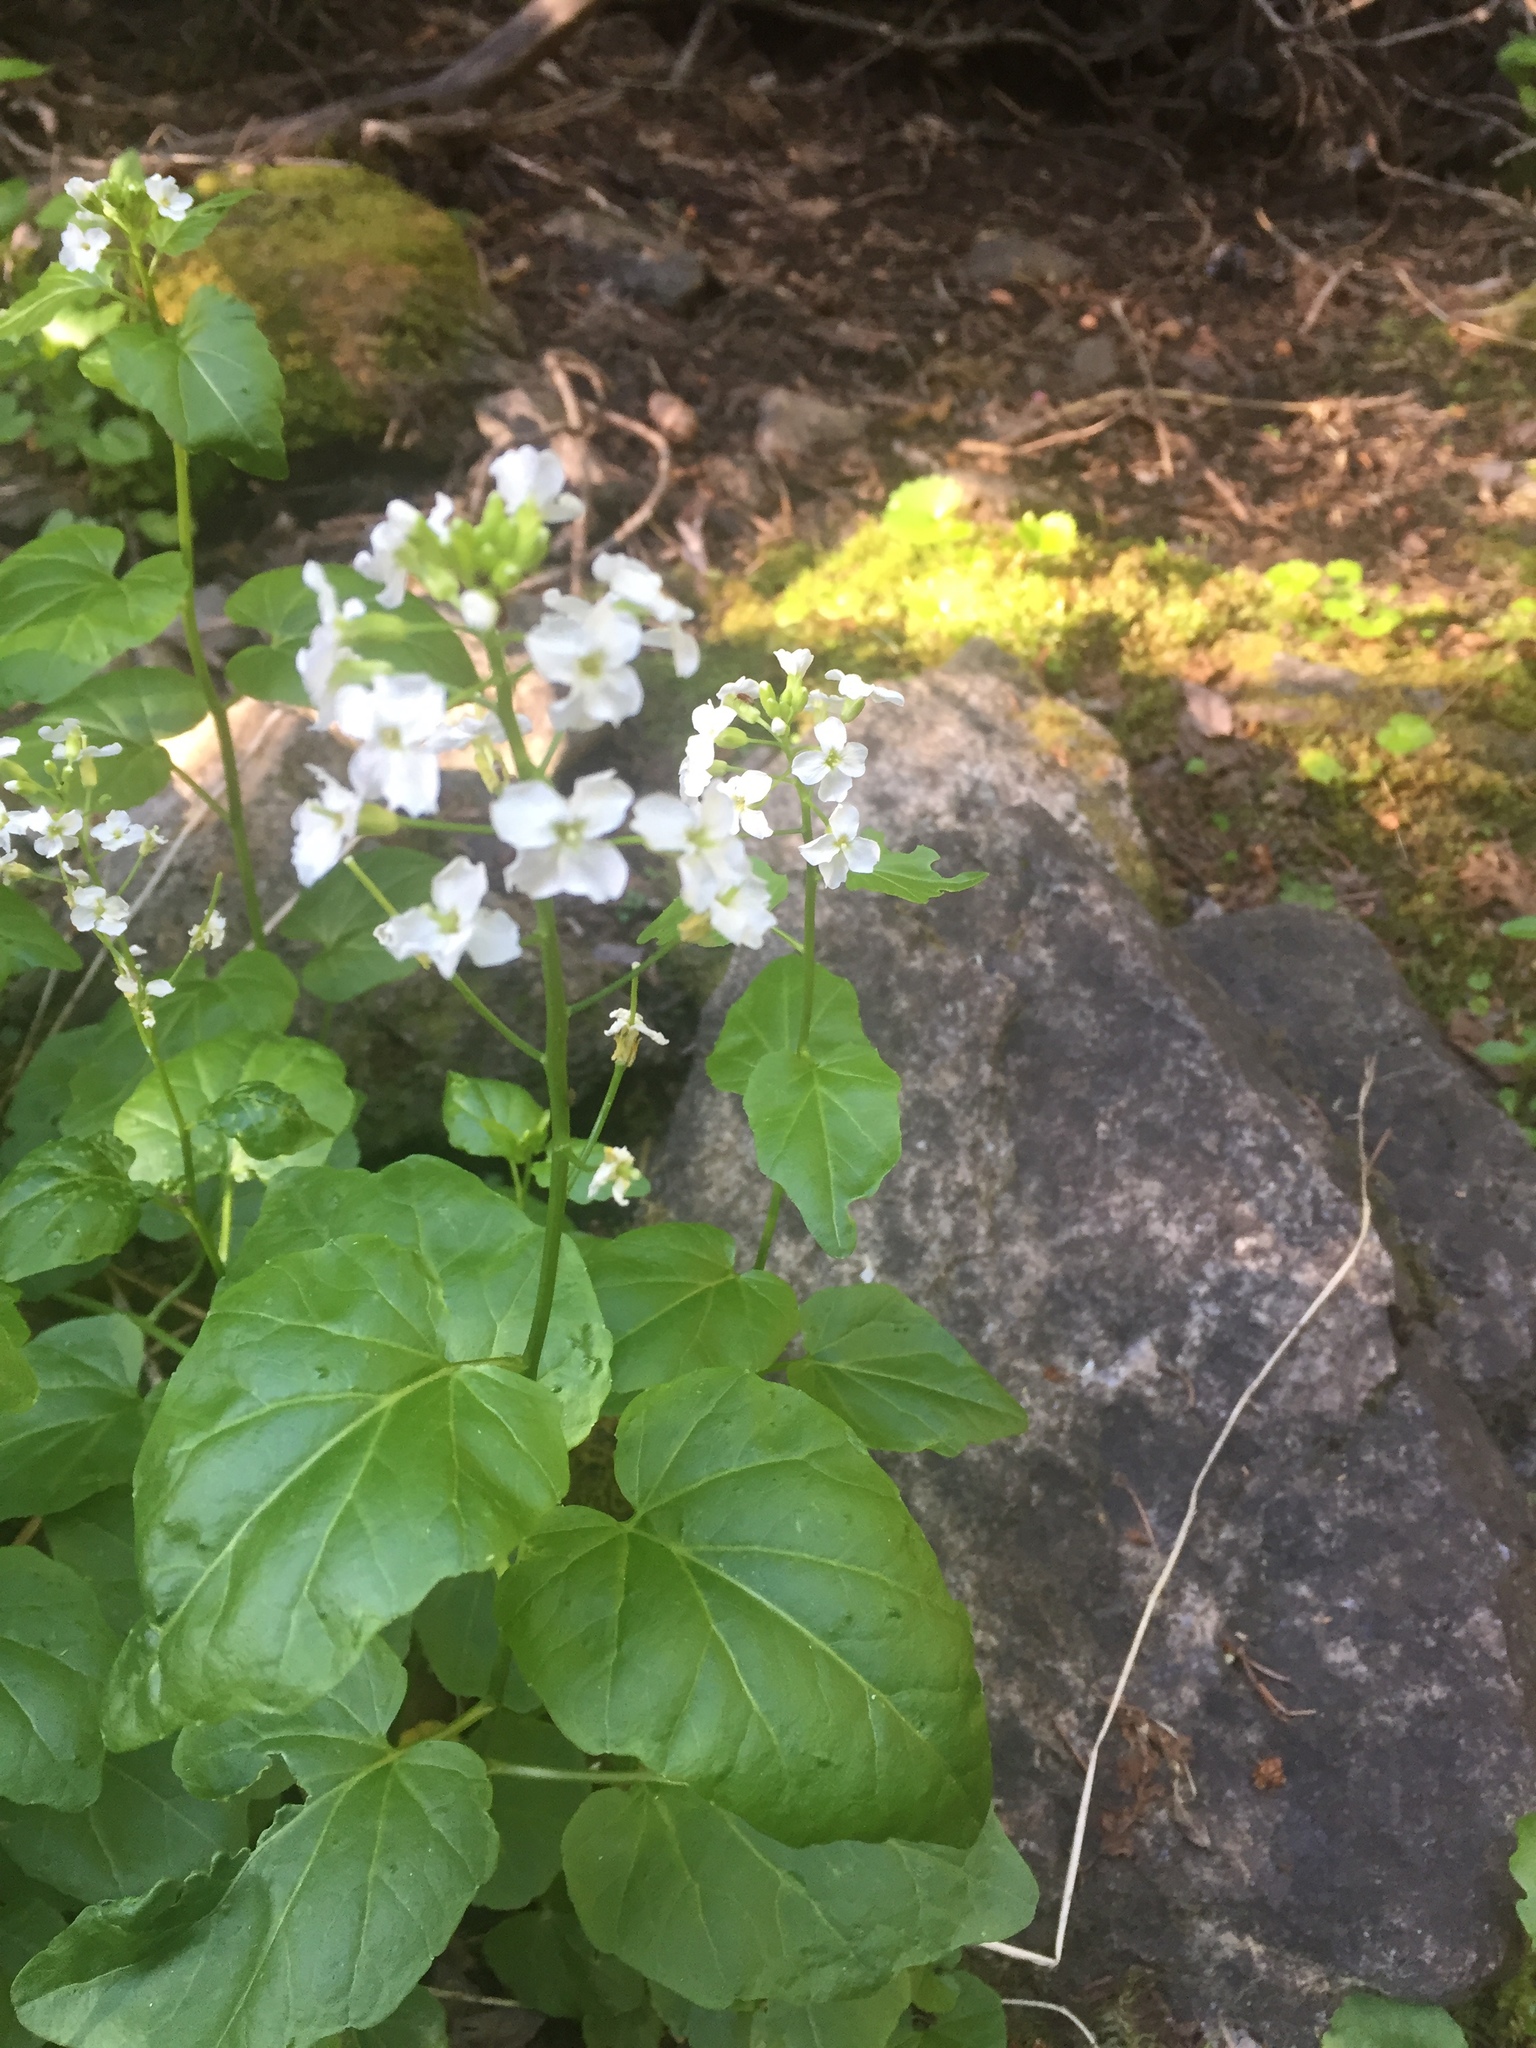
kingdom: Plantae
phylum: Tracheophyta
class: Magnoliopsida
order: Brassicales
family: Brassicaceae
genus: Cardamine
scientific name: Cardamine cordifolia
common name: Heart-leaf bittercress
